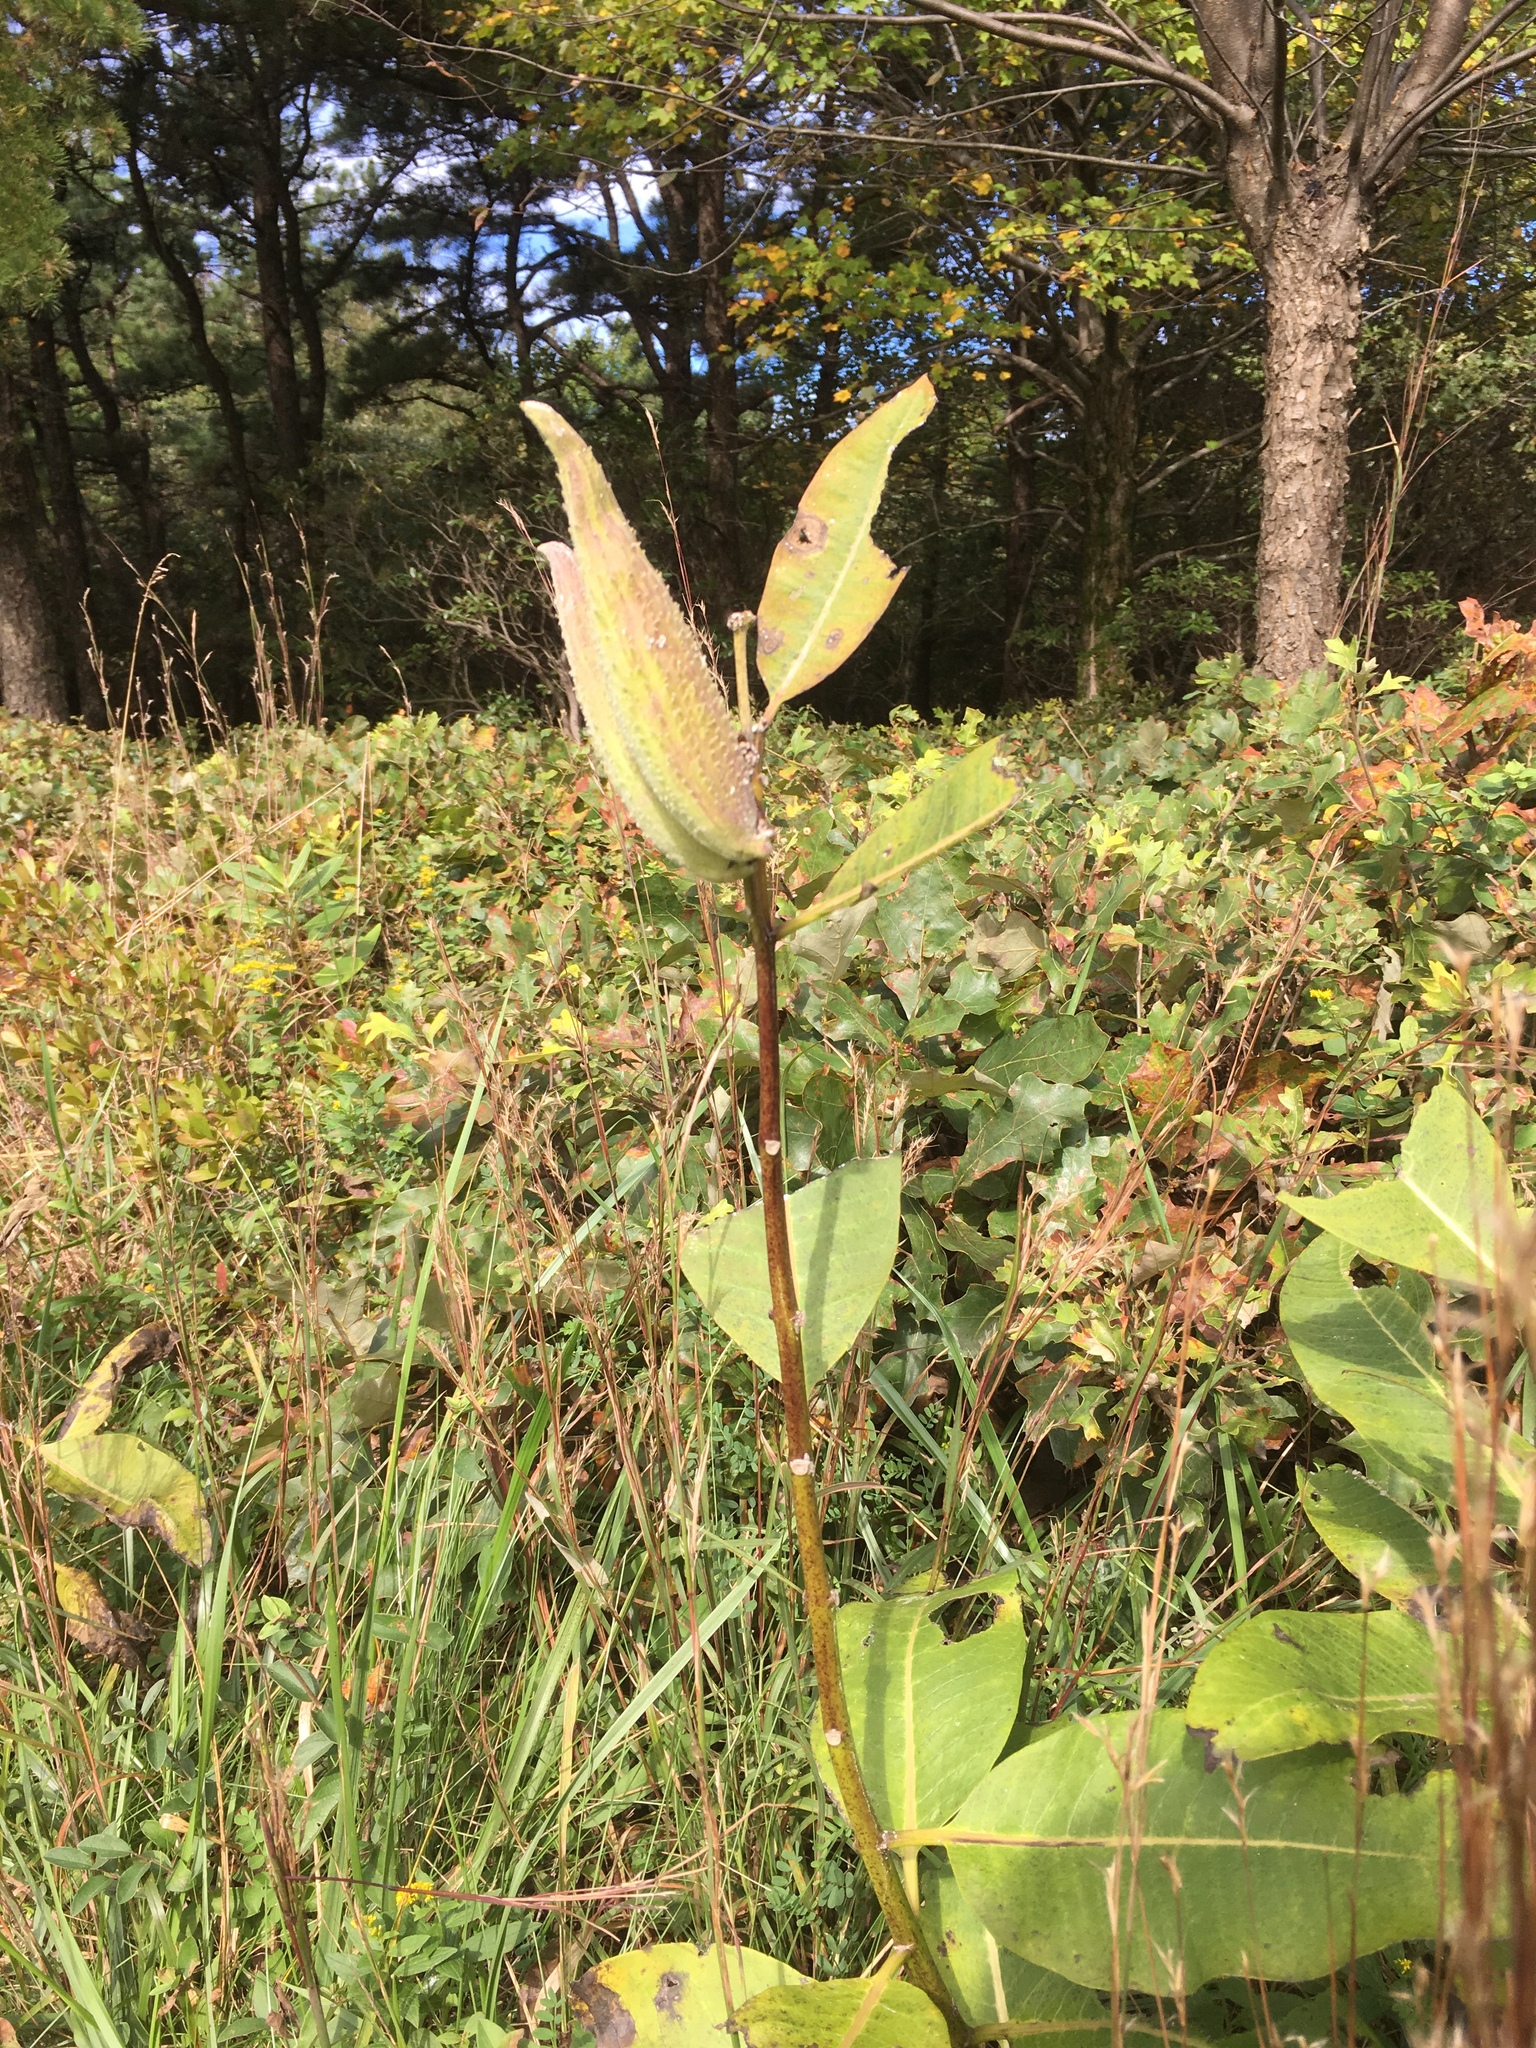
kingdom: Plantae
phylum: Tracheophyta
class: Magnoliopsida
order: Gentianales
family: Apocynaceae
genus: Asclepias
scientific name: Asclepias syriaca
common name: Common milkweed
